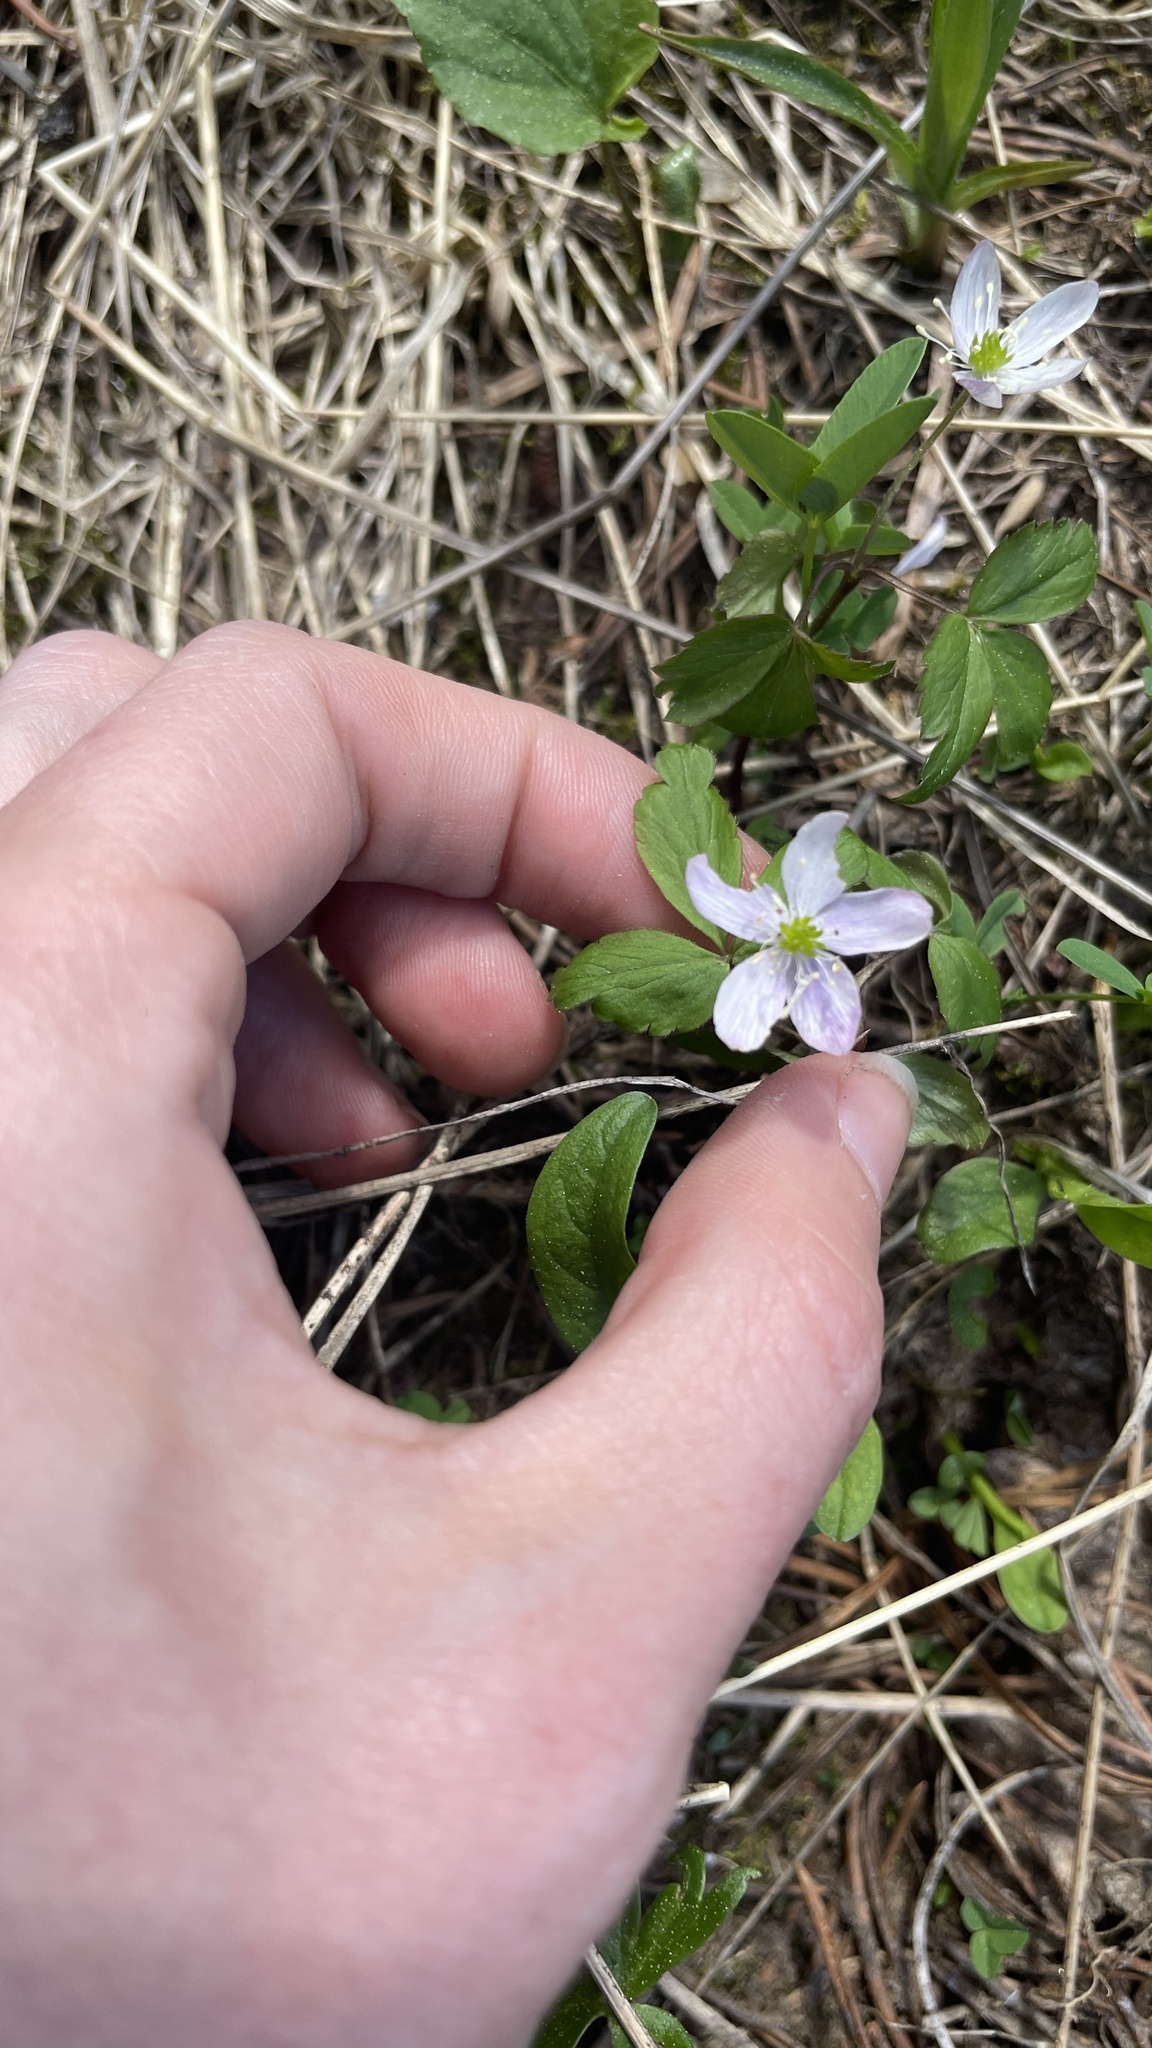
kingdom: Plantae
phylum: Tracheophyta
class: Magnoliopsida
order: Ranunculales
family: Ranunculaceae
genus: Anemone
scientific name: Anemone
